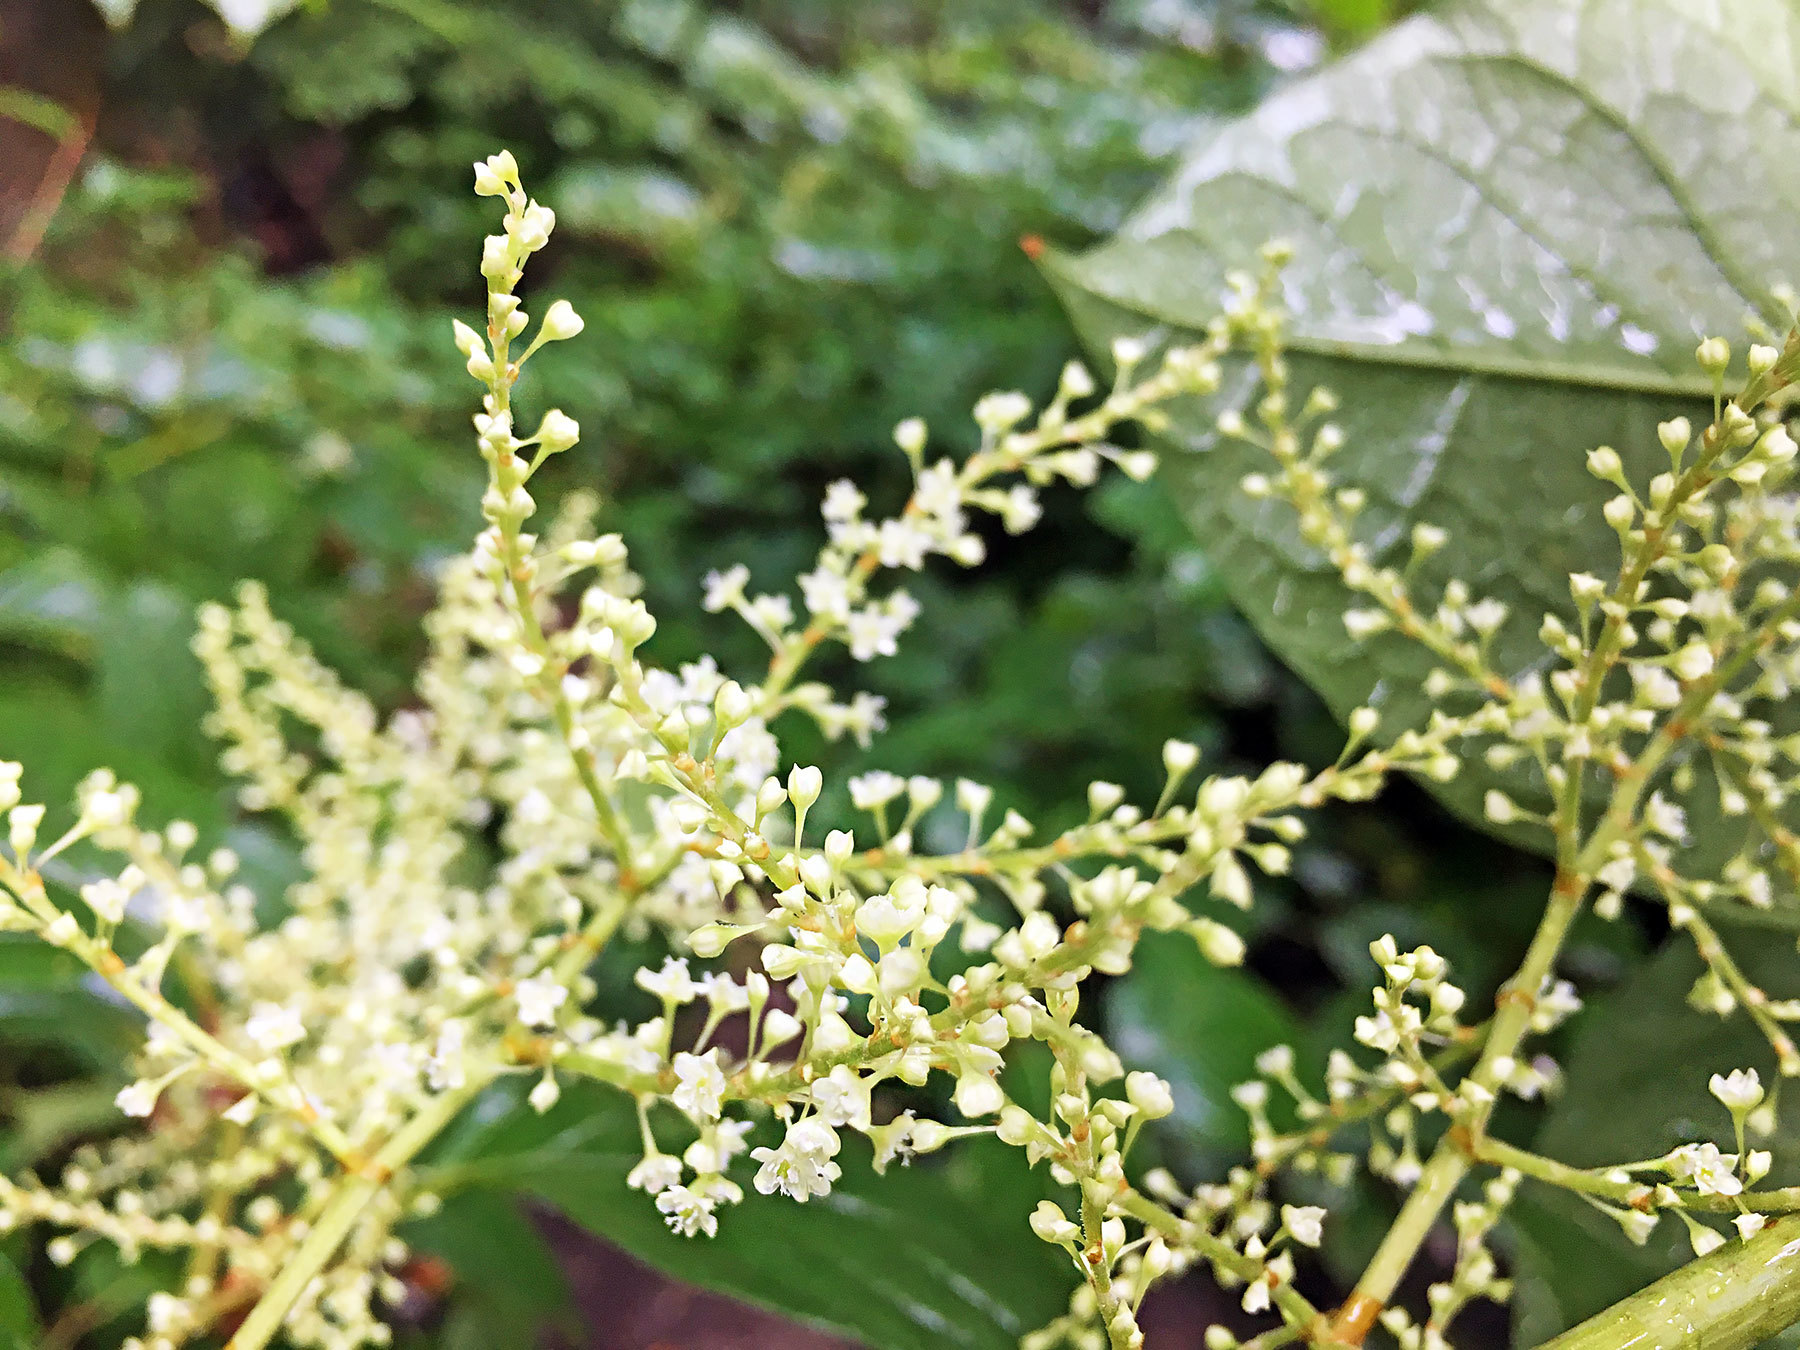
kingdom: Plantae
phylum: Tracheophyta
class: Magnoliopsida
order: Caryophyllales
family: Polygonaceae
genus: Reynoutria
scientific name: Reynoutria japonica
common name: Japanese knotweed
